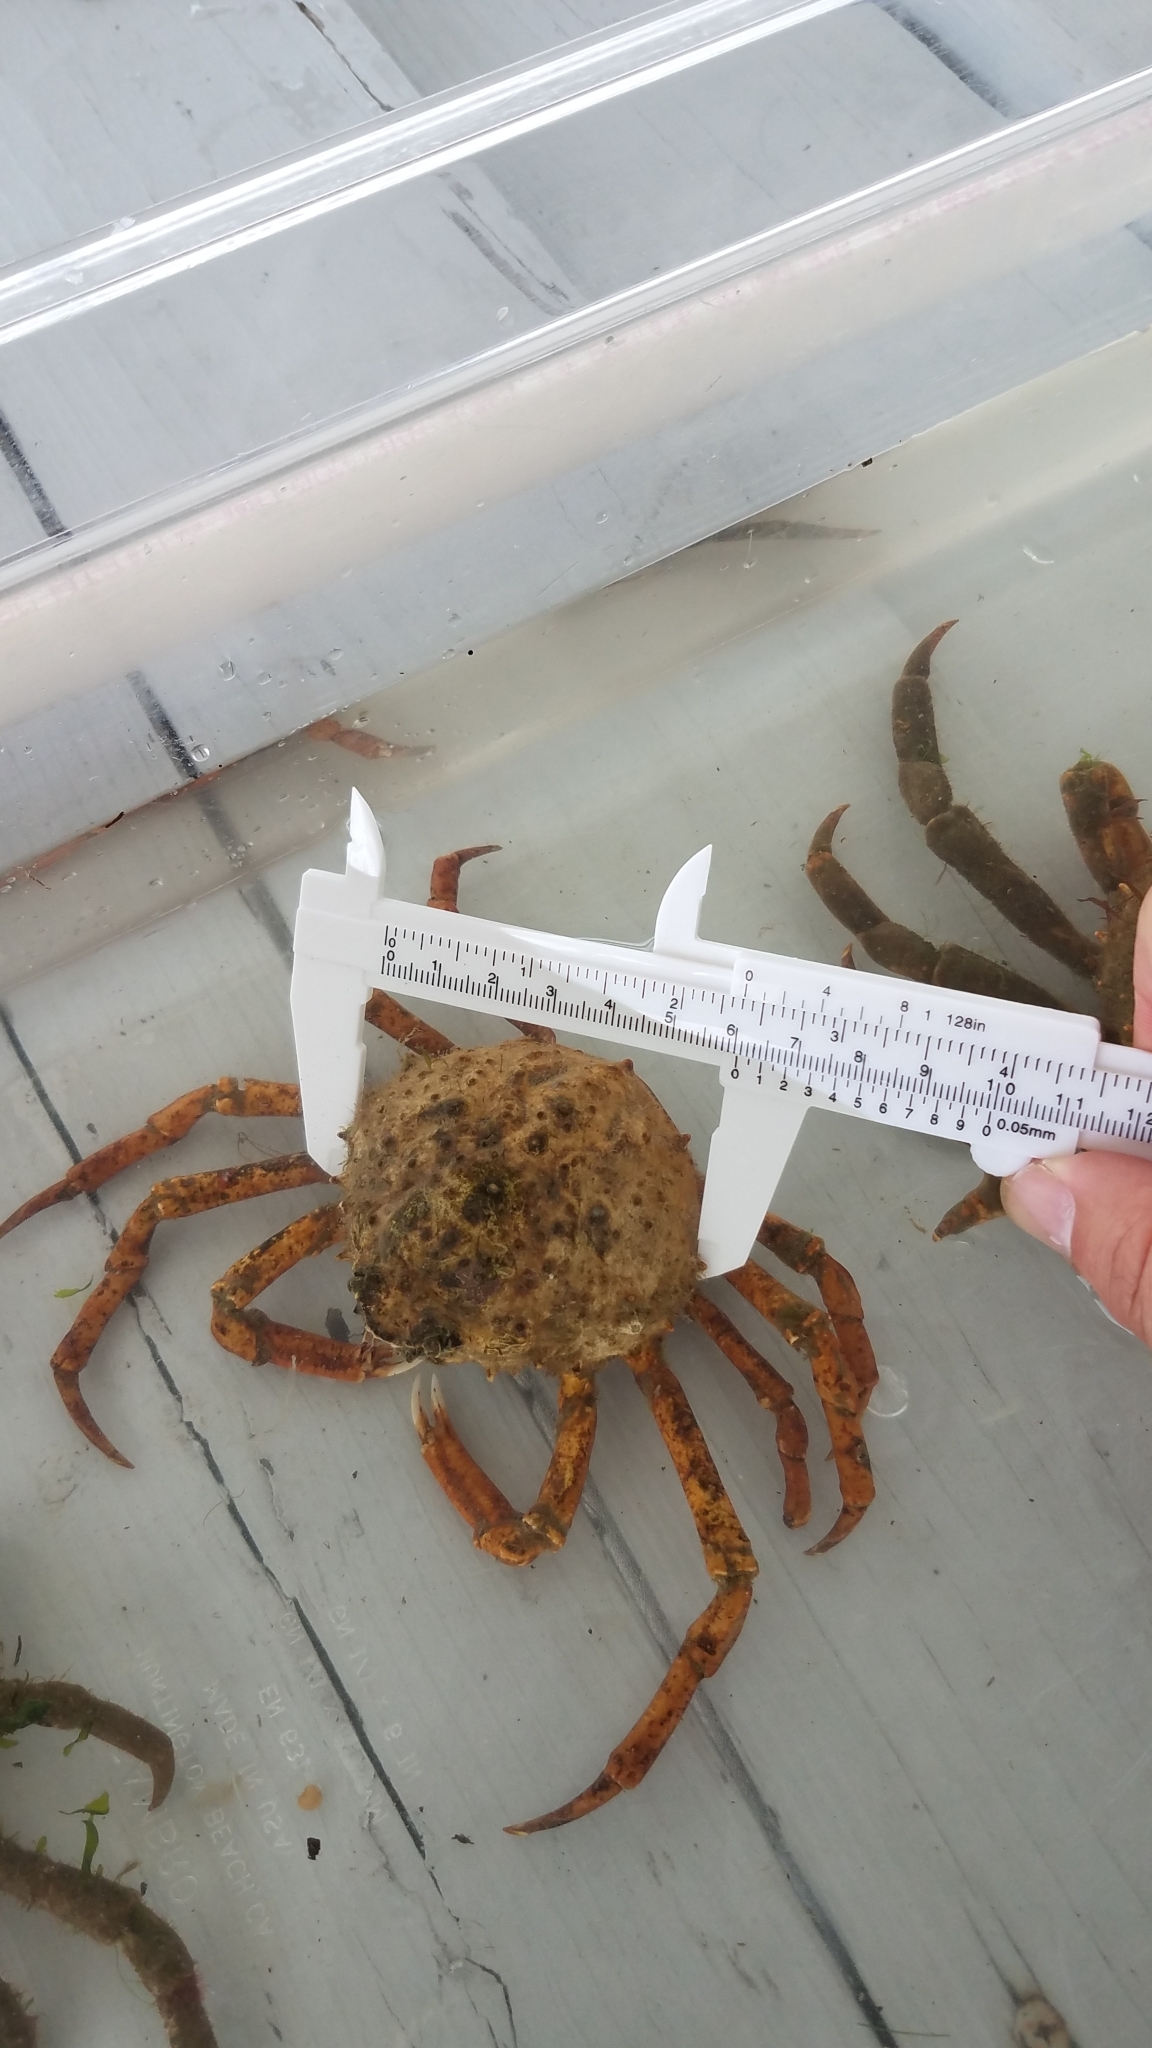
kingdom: Animalia
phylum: Arthropoda
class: Malacostraca
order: Decapoda
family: Epialtidae
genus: Libinia
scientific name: Libinia emarginata
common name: Common spider crab
